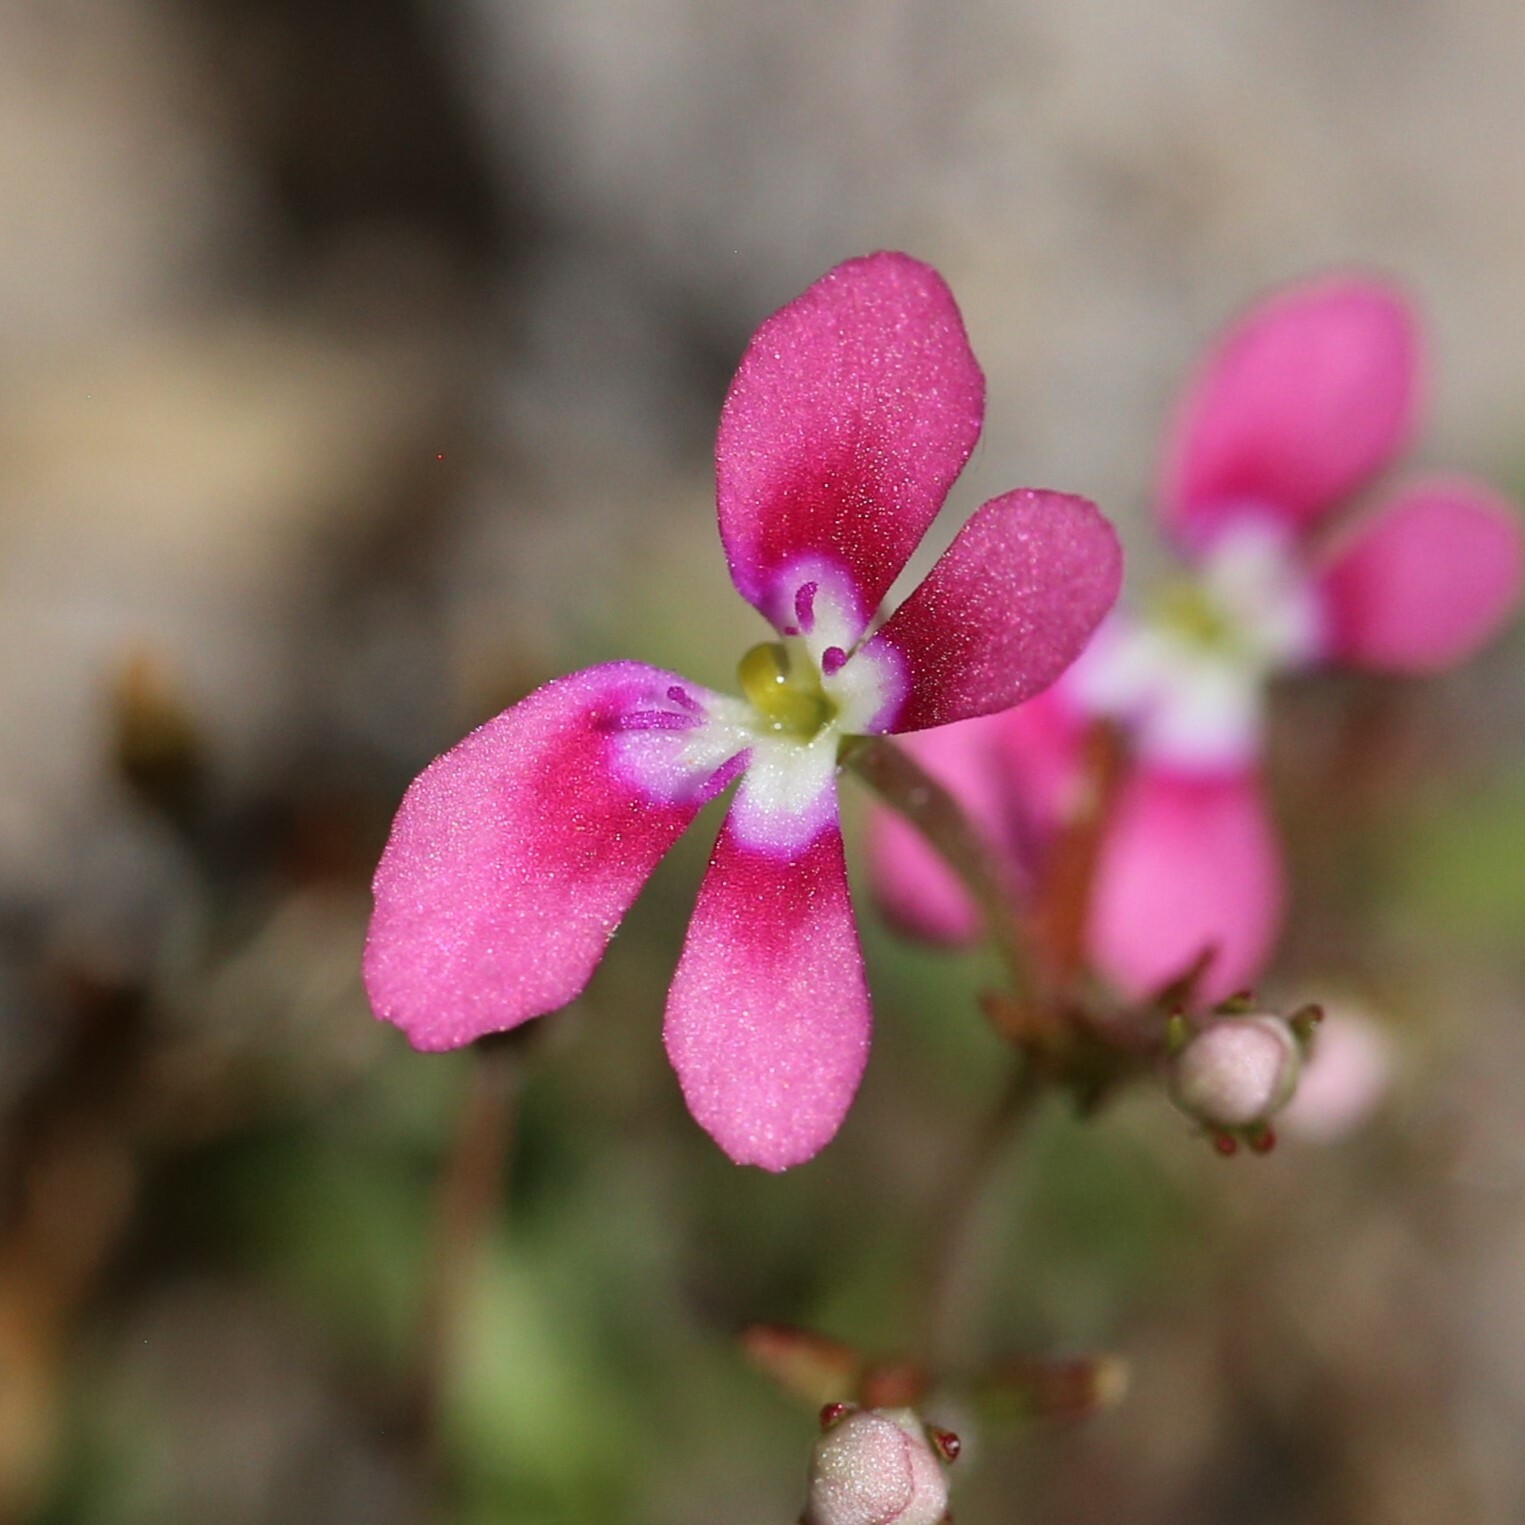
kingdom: Plantae
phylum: Tracheophyta
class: Magnoliopsida
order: Asterales
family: Stylidiaceae
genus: Stylidium
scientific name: Stylidium longitubum
